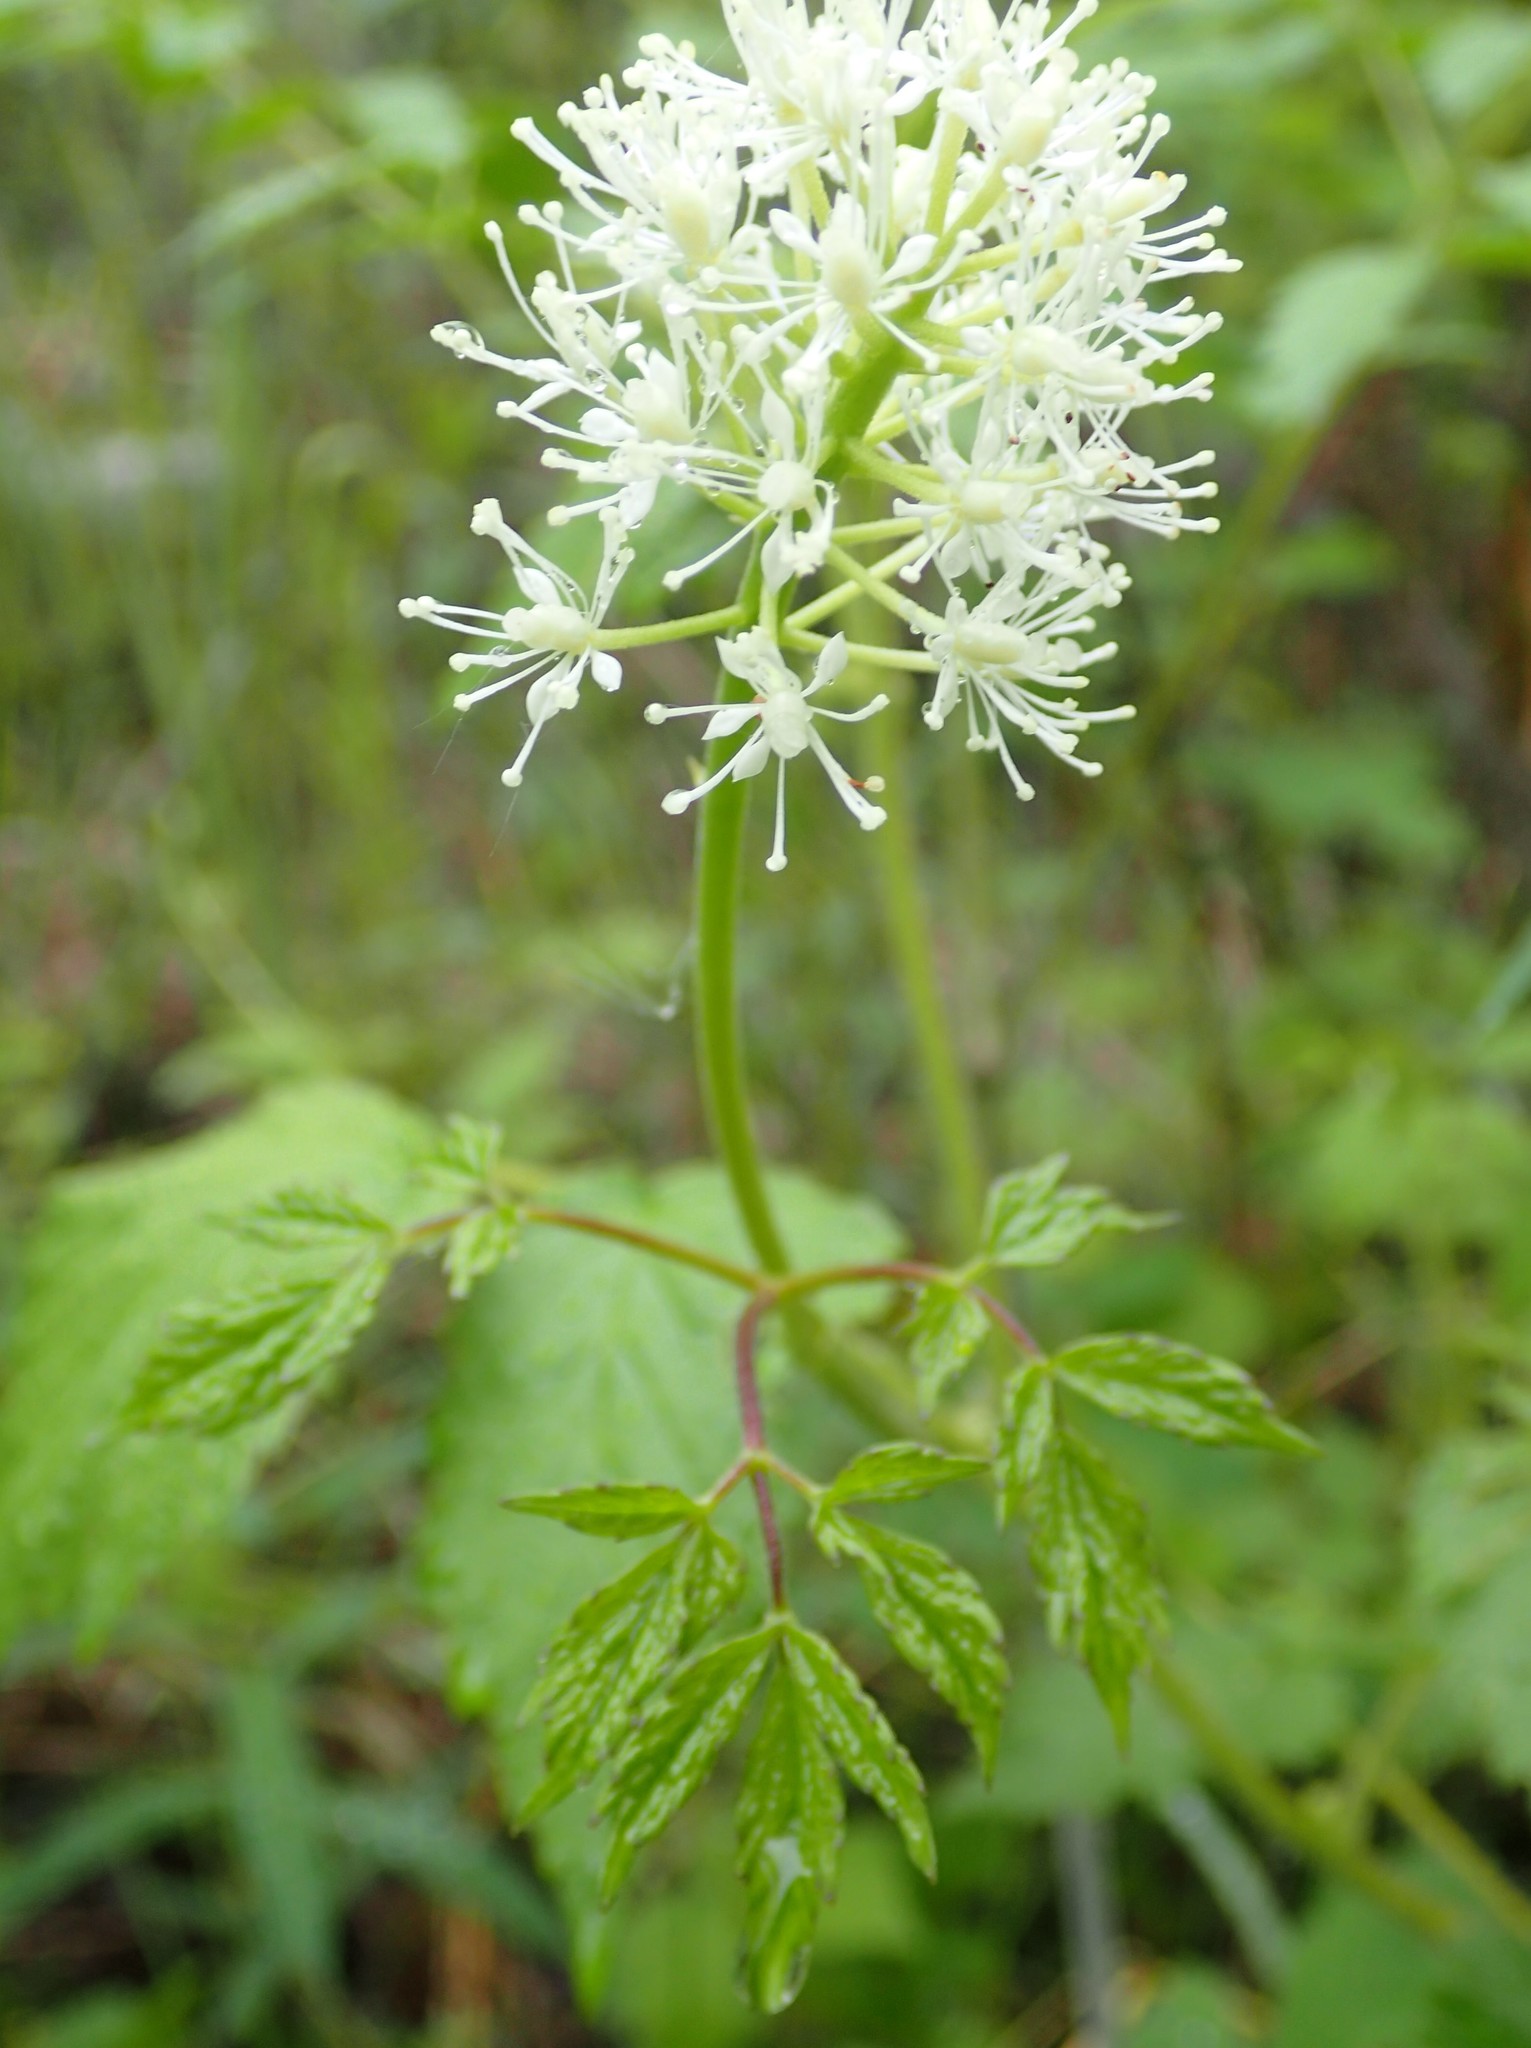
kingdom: Plantae
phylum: Tracheophyta
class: Magnoliopsida
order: Ranunculales
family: Ranunculaceae
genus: Actaea
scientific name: Actaea rubra
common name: Red baneberry
